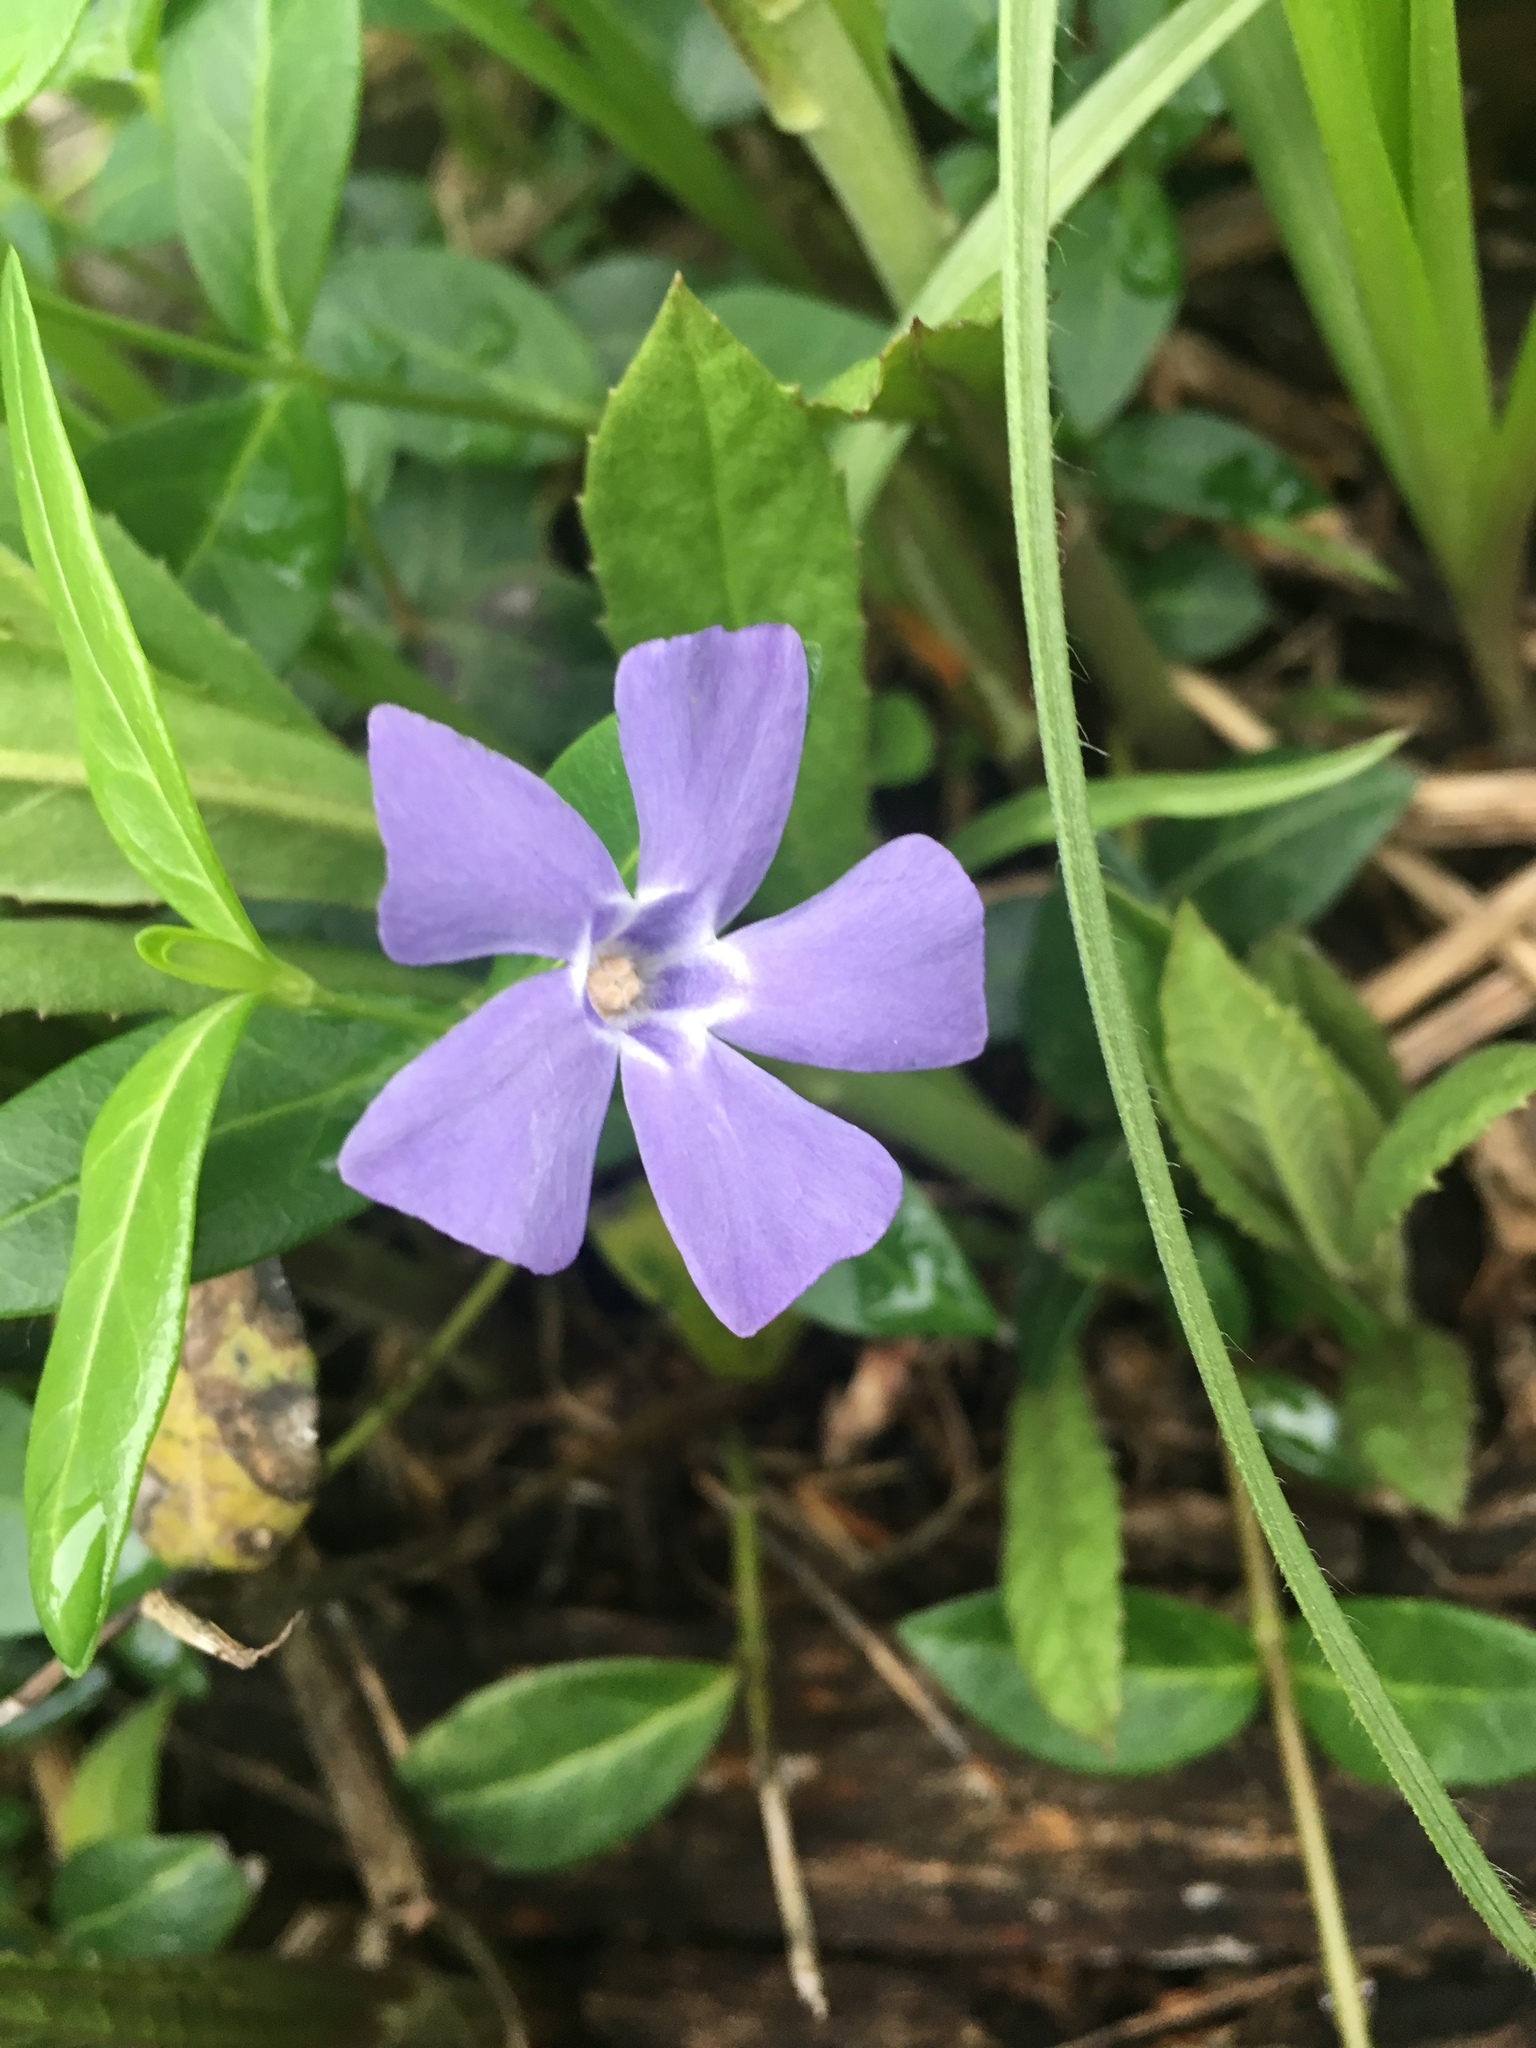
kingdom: Plantae
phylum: Tracheophyta
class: Magnoliopsida
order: Gentianales
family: Apocynaceae
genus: Vinca
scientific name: Vinca minor
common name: Lesser periwinkle
